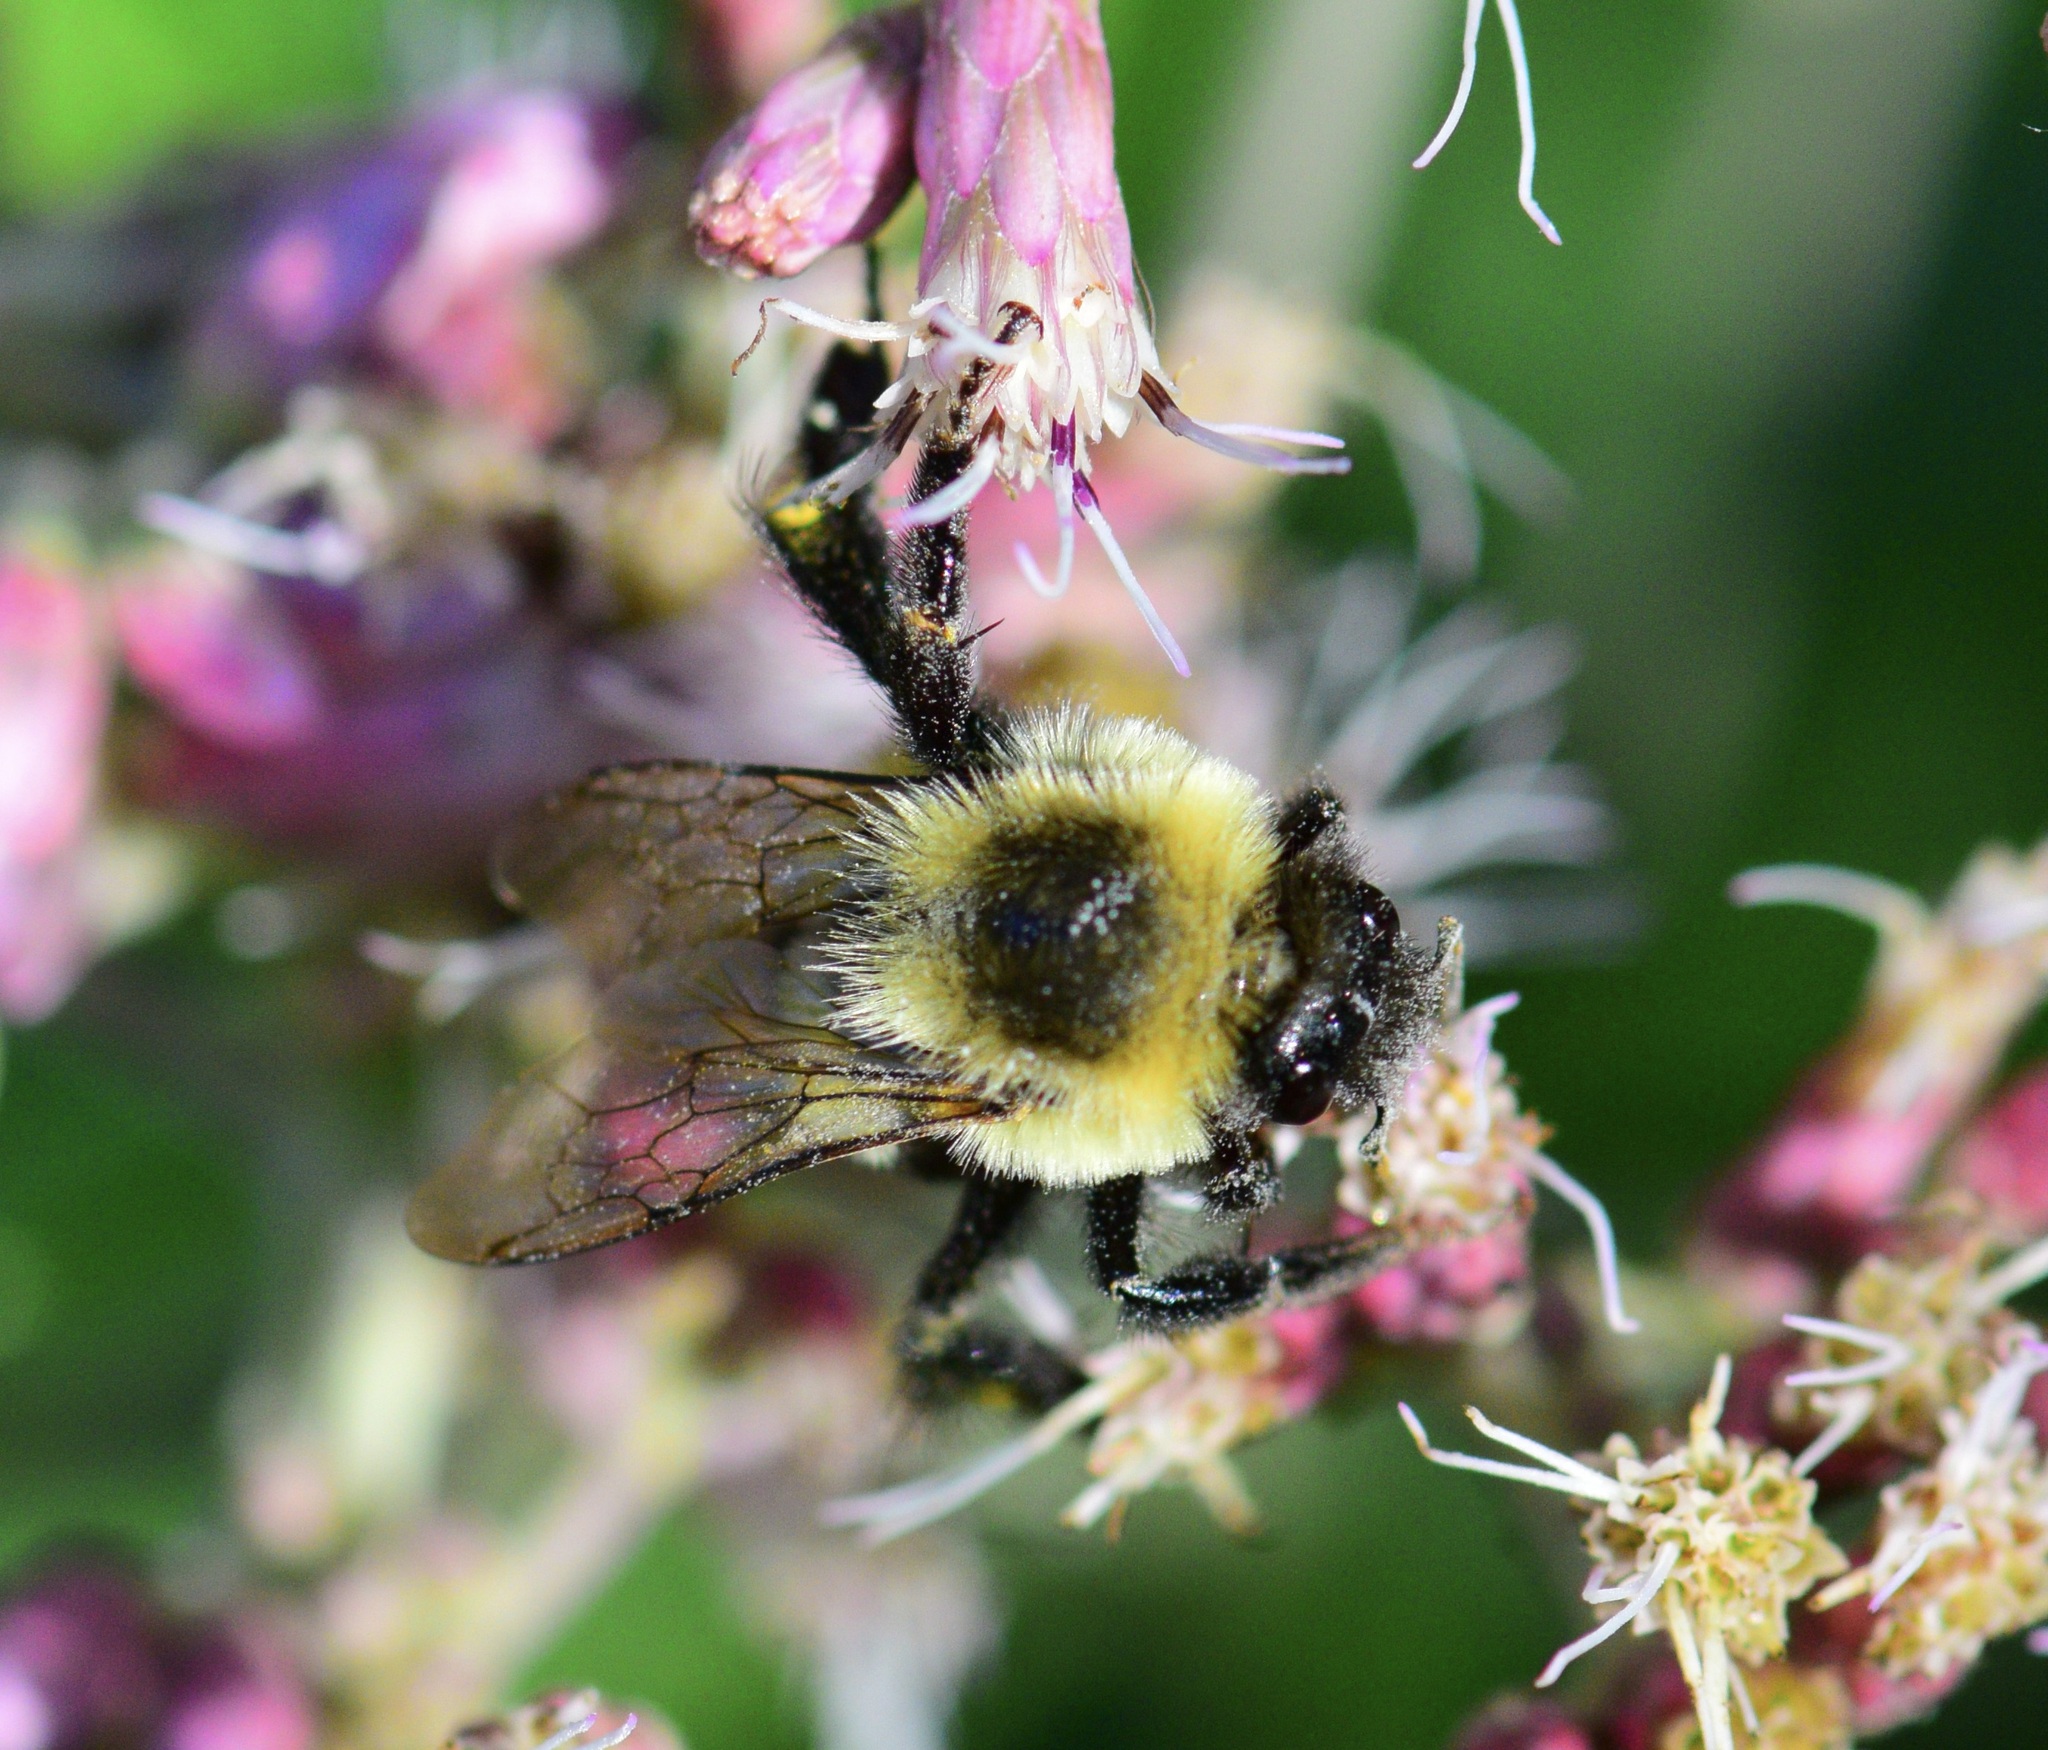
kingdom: Animalia
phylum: Arthropoda
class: Insecta
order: Hymenoptera
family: Apidae
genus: Bombus
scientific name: Bombus impatiens
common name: Common eastern bumble bee
